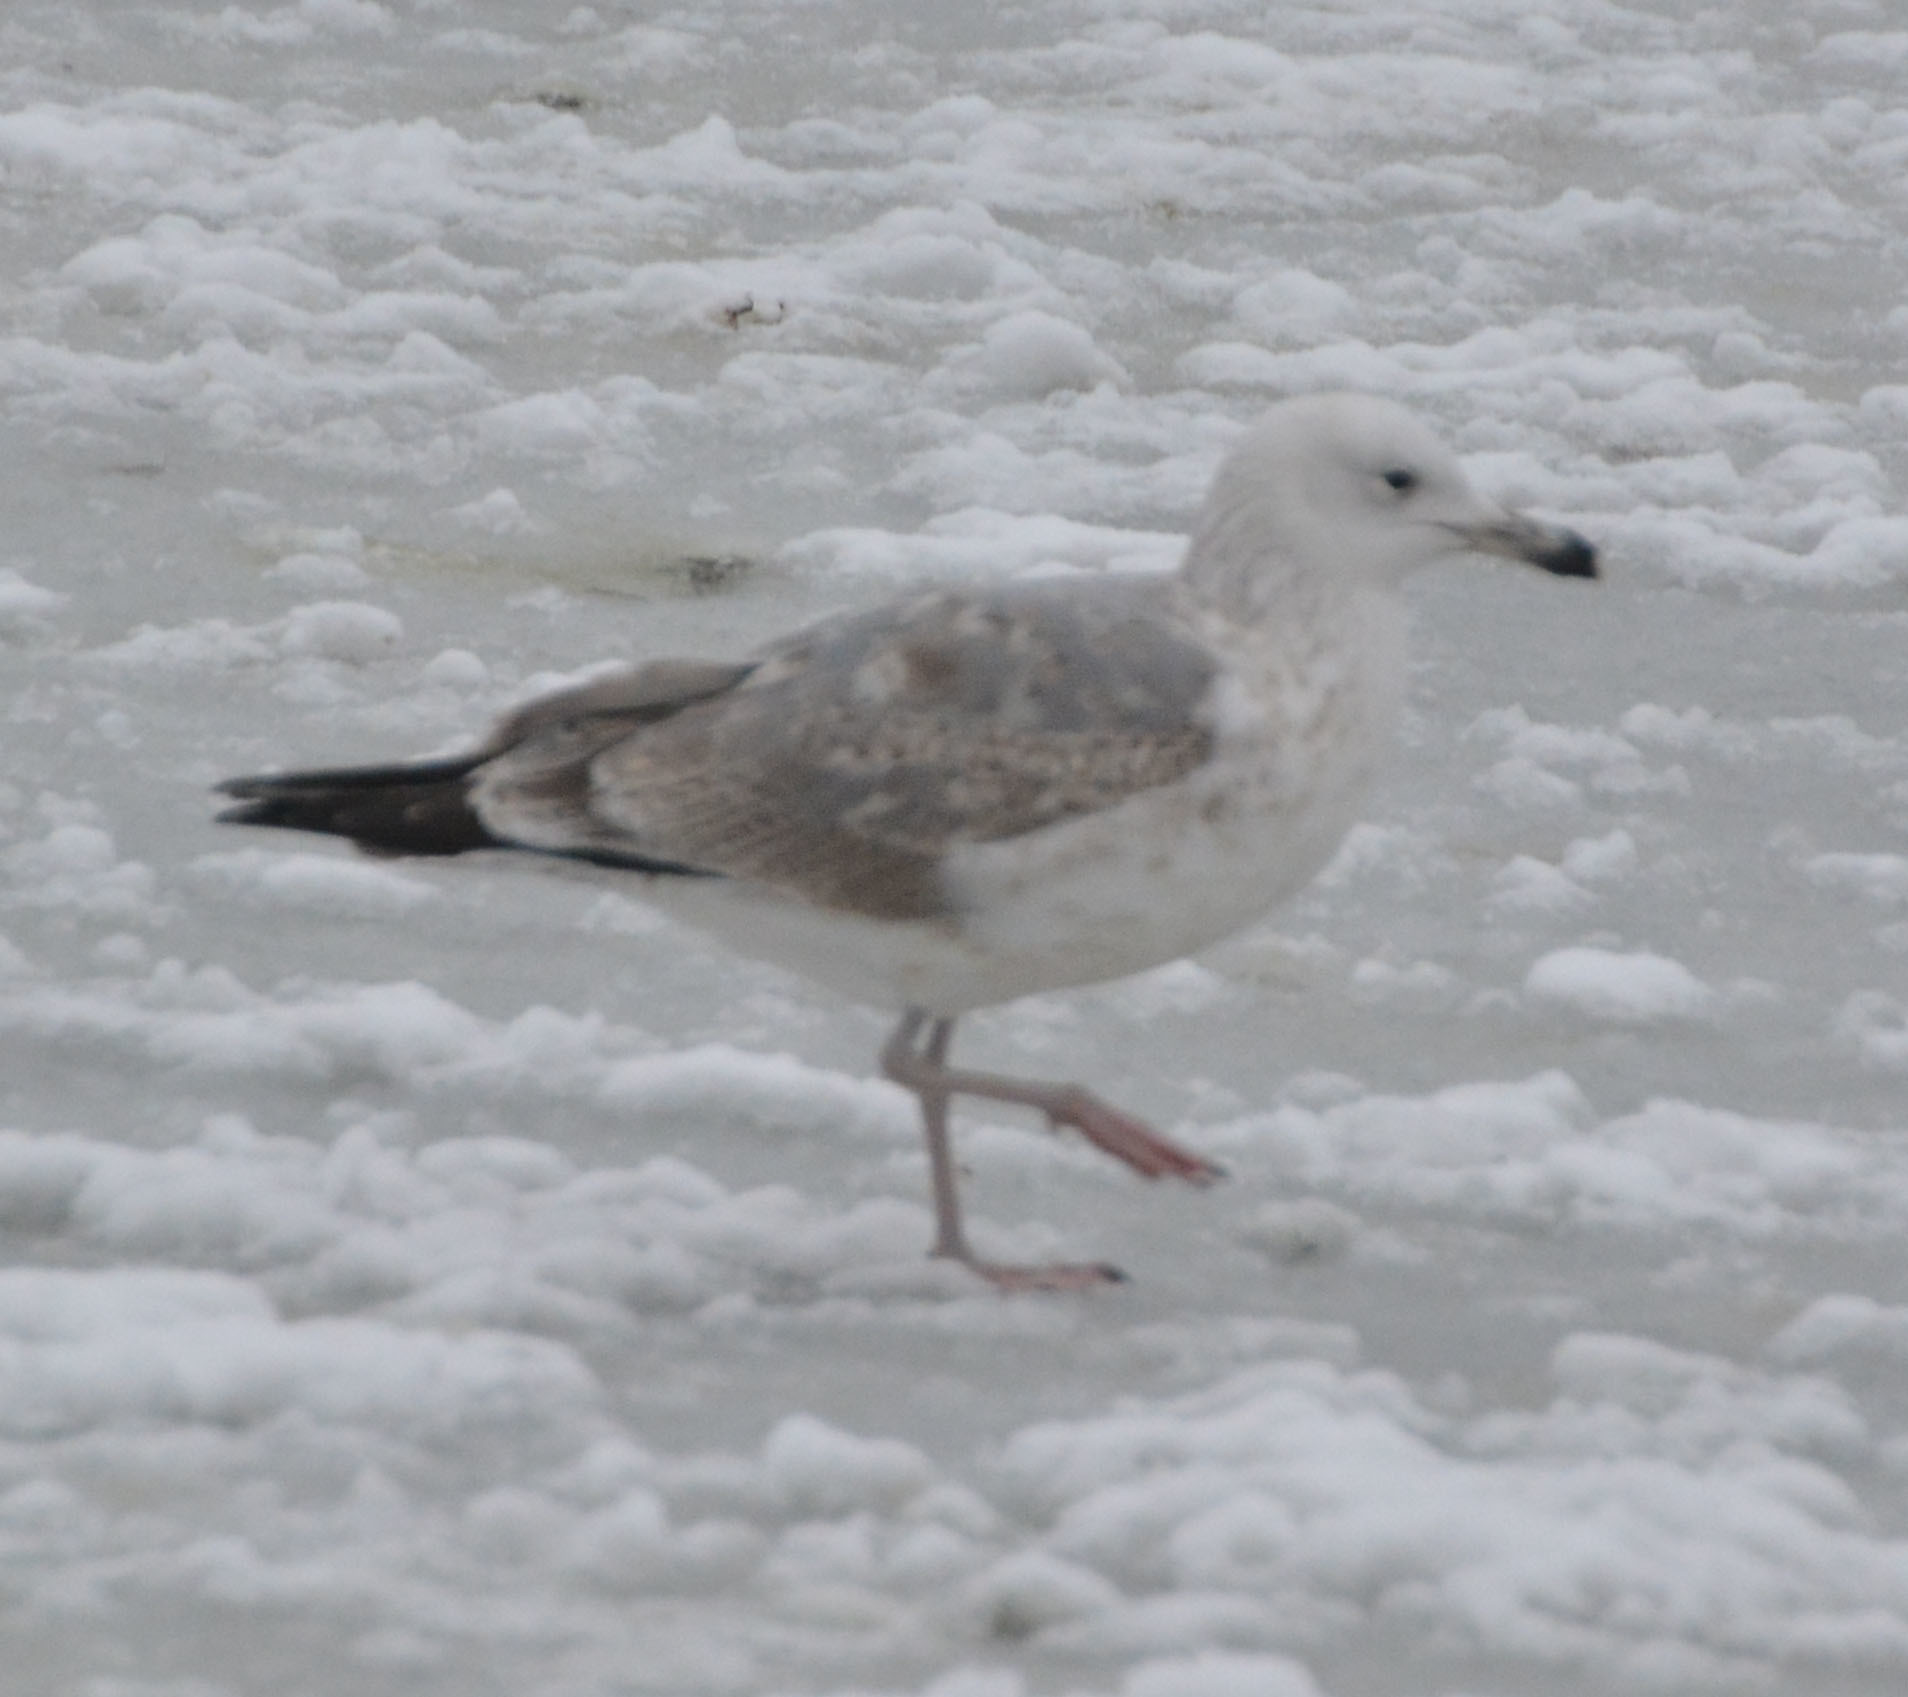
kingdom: Animalia
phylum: Chordata
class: Aves
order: Charadriiformes
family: Laridae
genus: Larus
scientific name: Larus argentatus
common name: Herring gull
